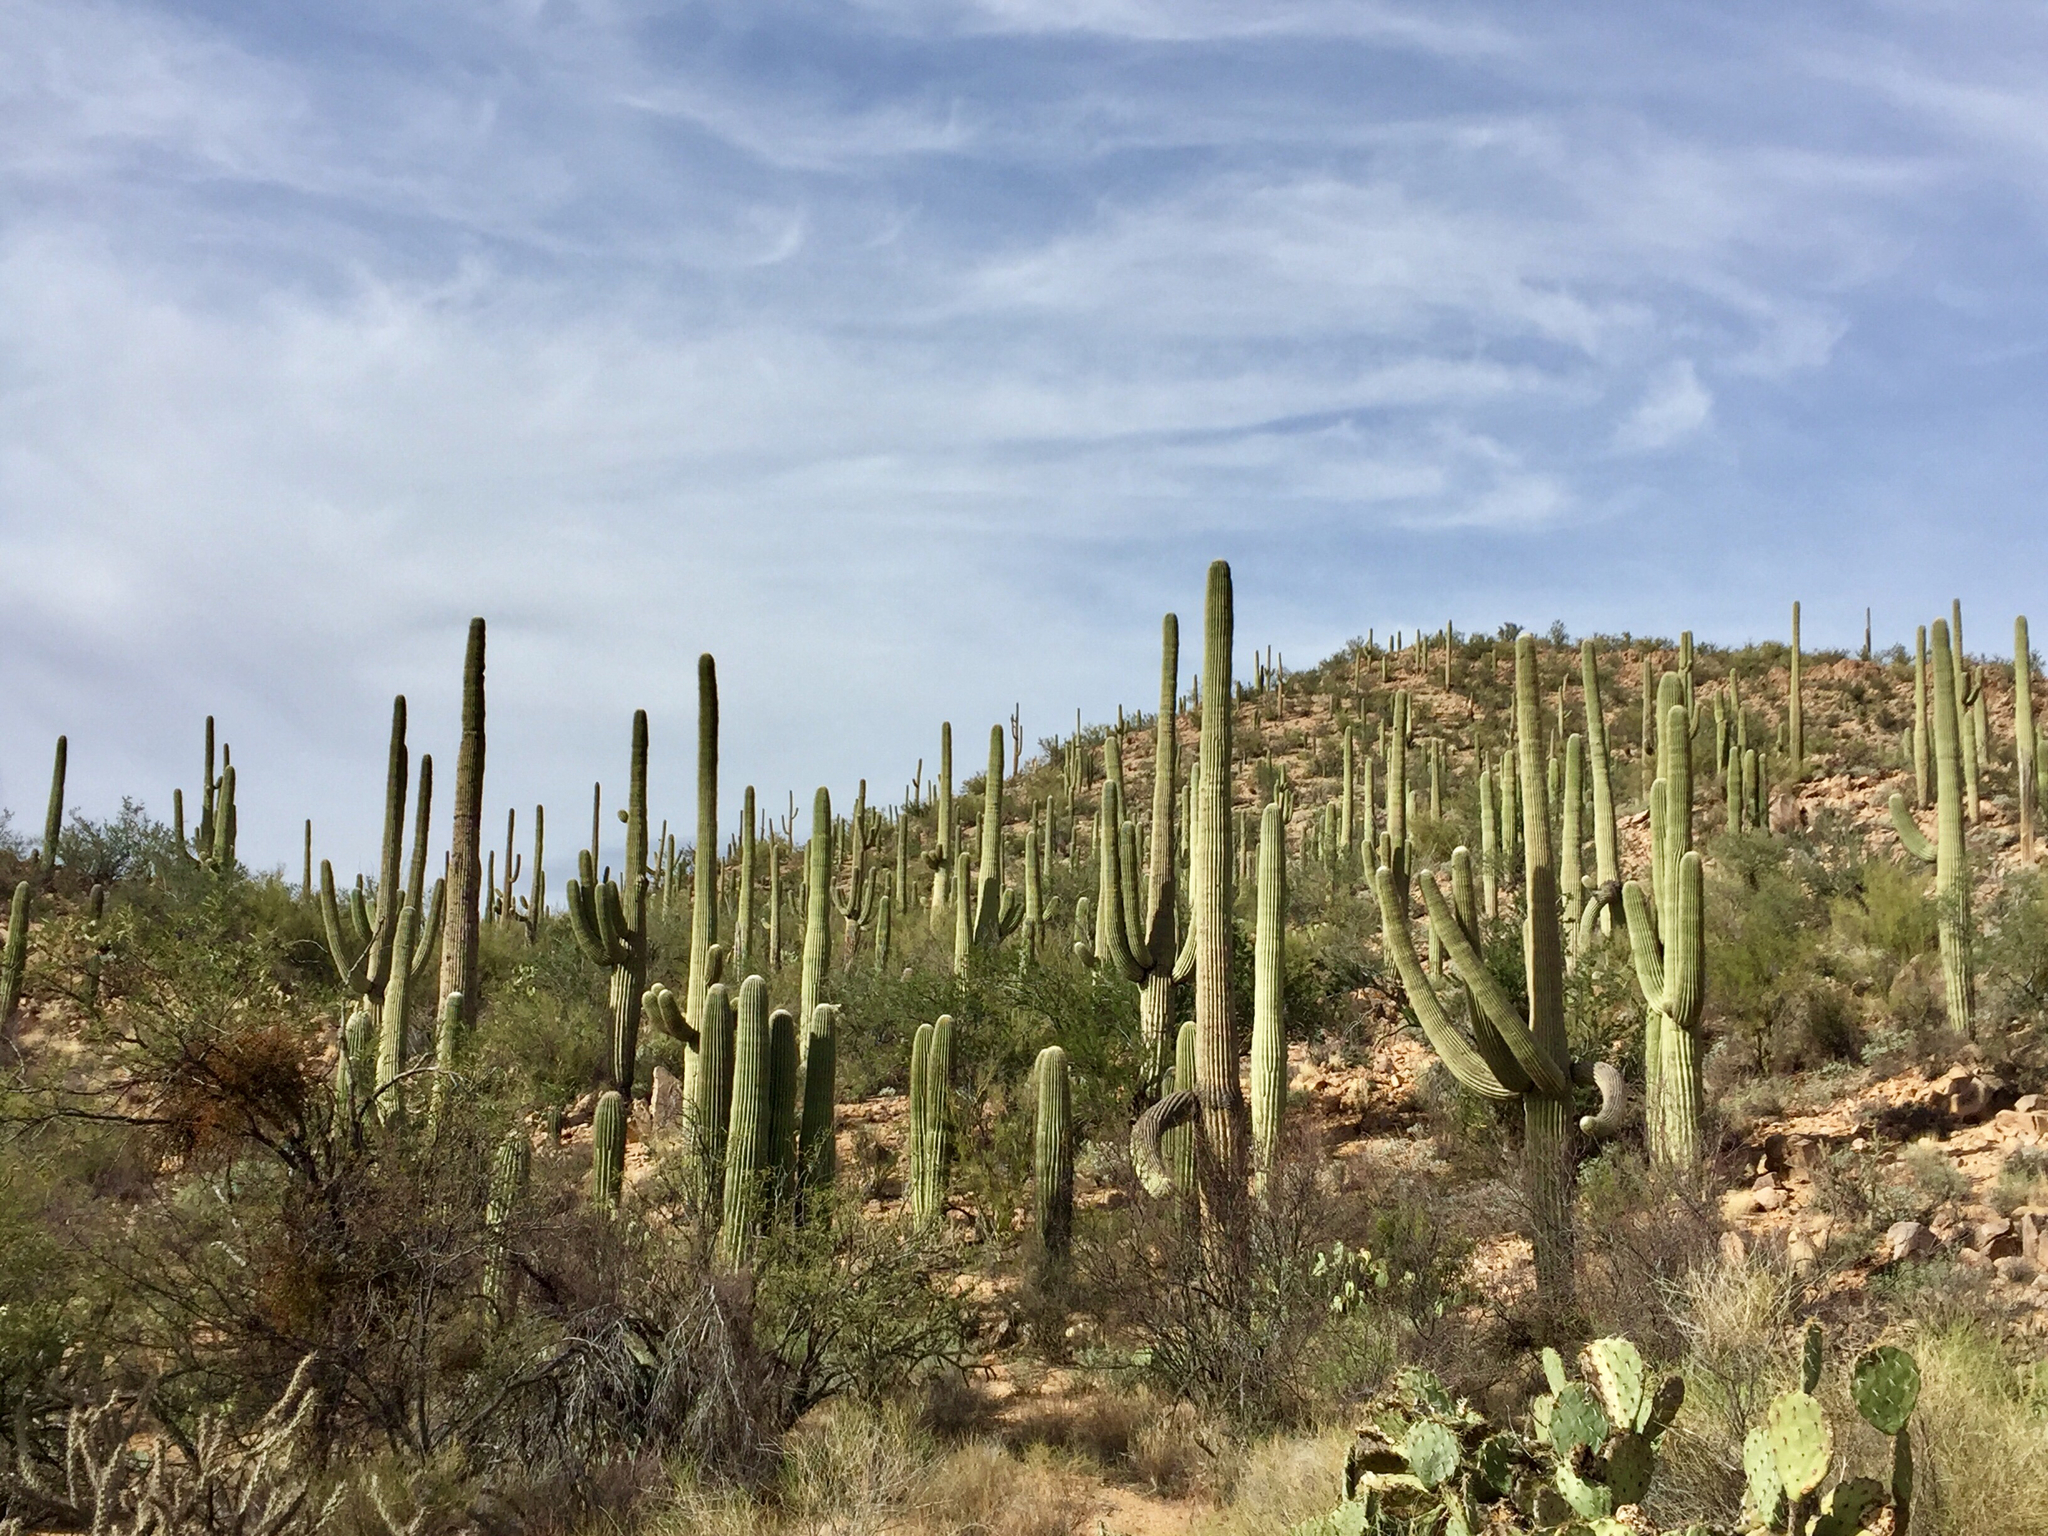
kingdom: Plantae
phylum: Tracheophyta
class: Magnoliopsida
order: Caryophyllales
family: Cactaceae
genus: Carnegiea
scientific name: Carnegiea gigantea
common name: Saguaro
